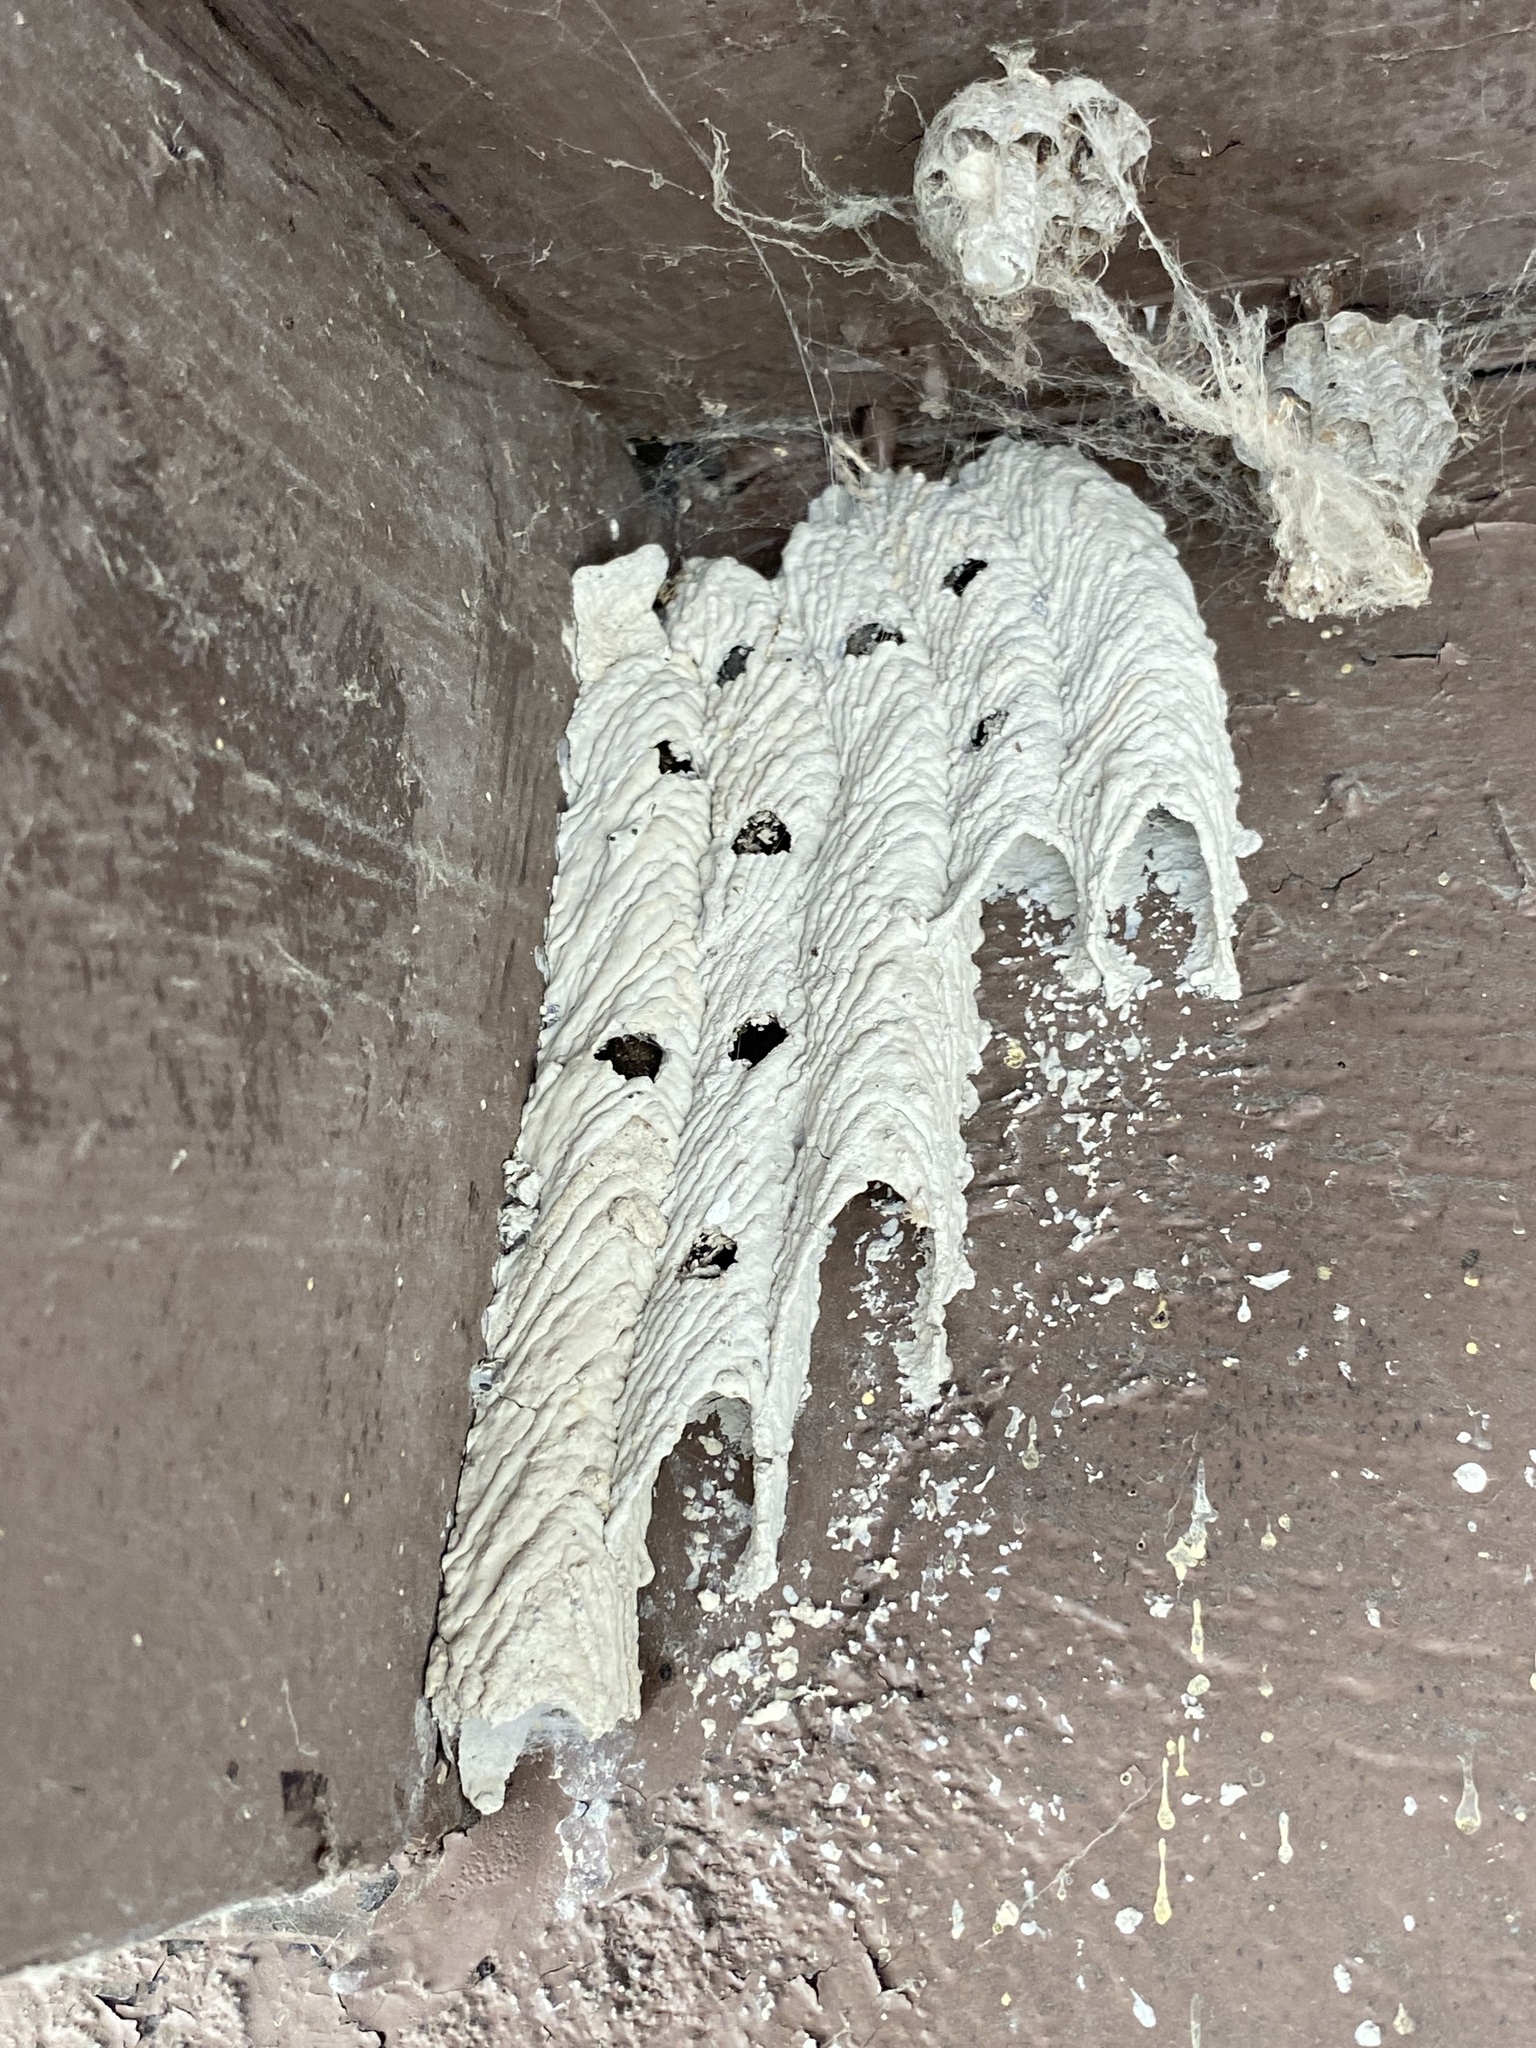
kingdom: Animalia
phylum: Arthropoda
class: Insecta
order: Hymenoptera
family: Crabronidae
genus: Trypoxylon
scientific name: Trypoxylon politum
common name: Organ-pipe mud-dauber wasp
